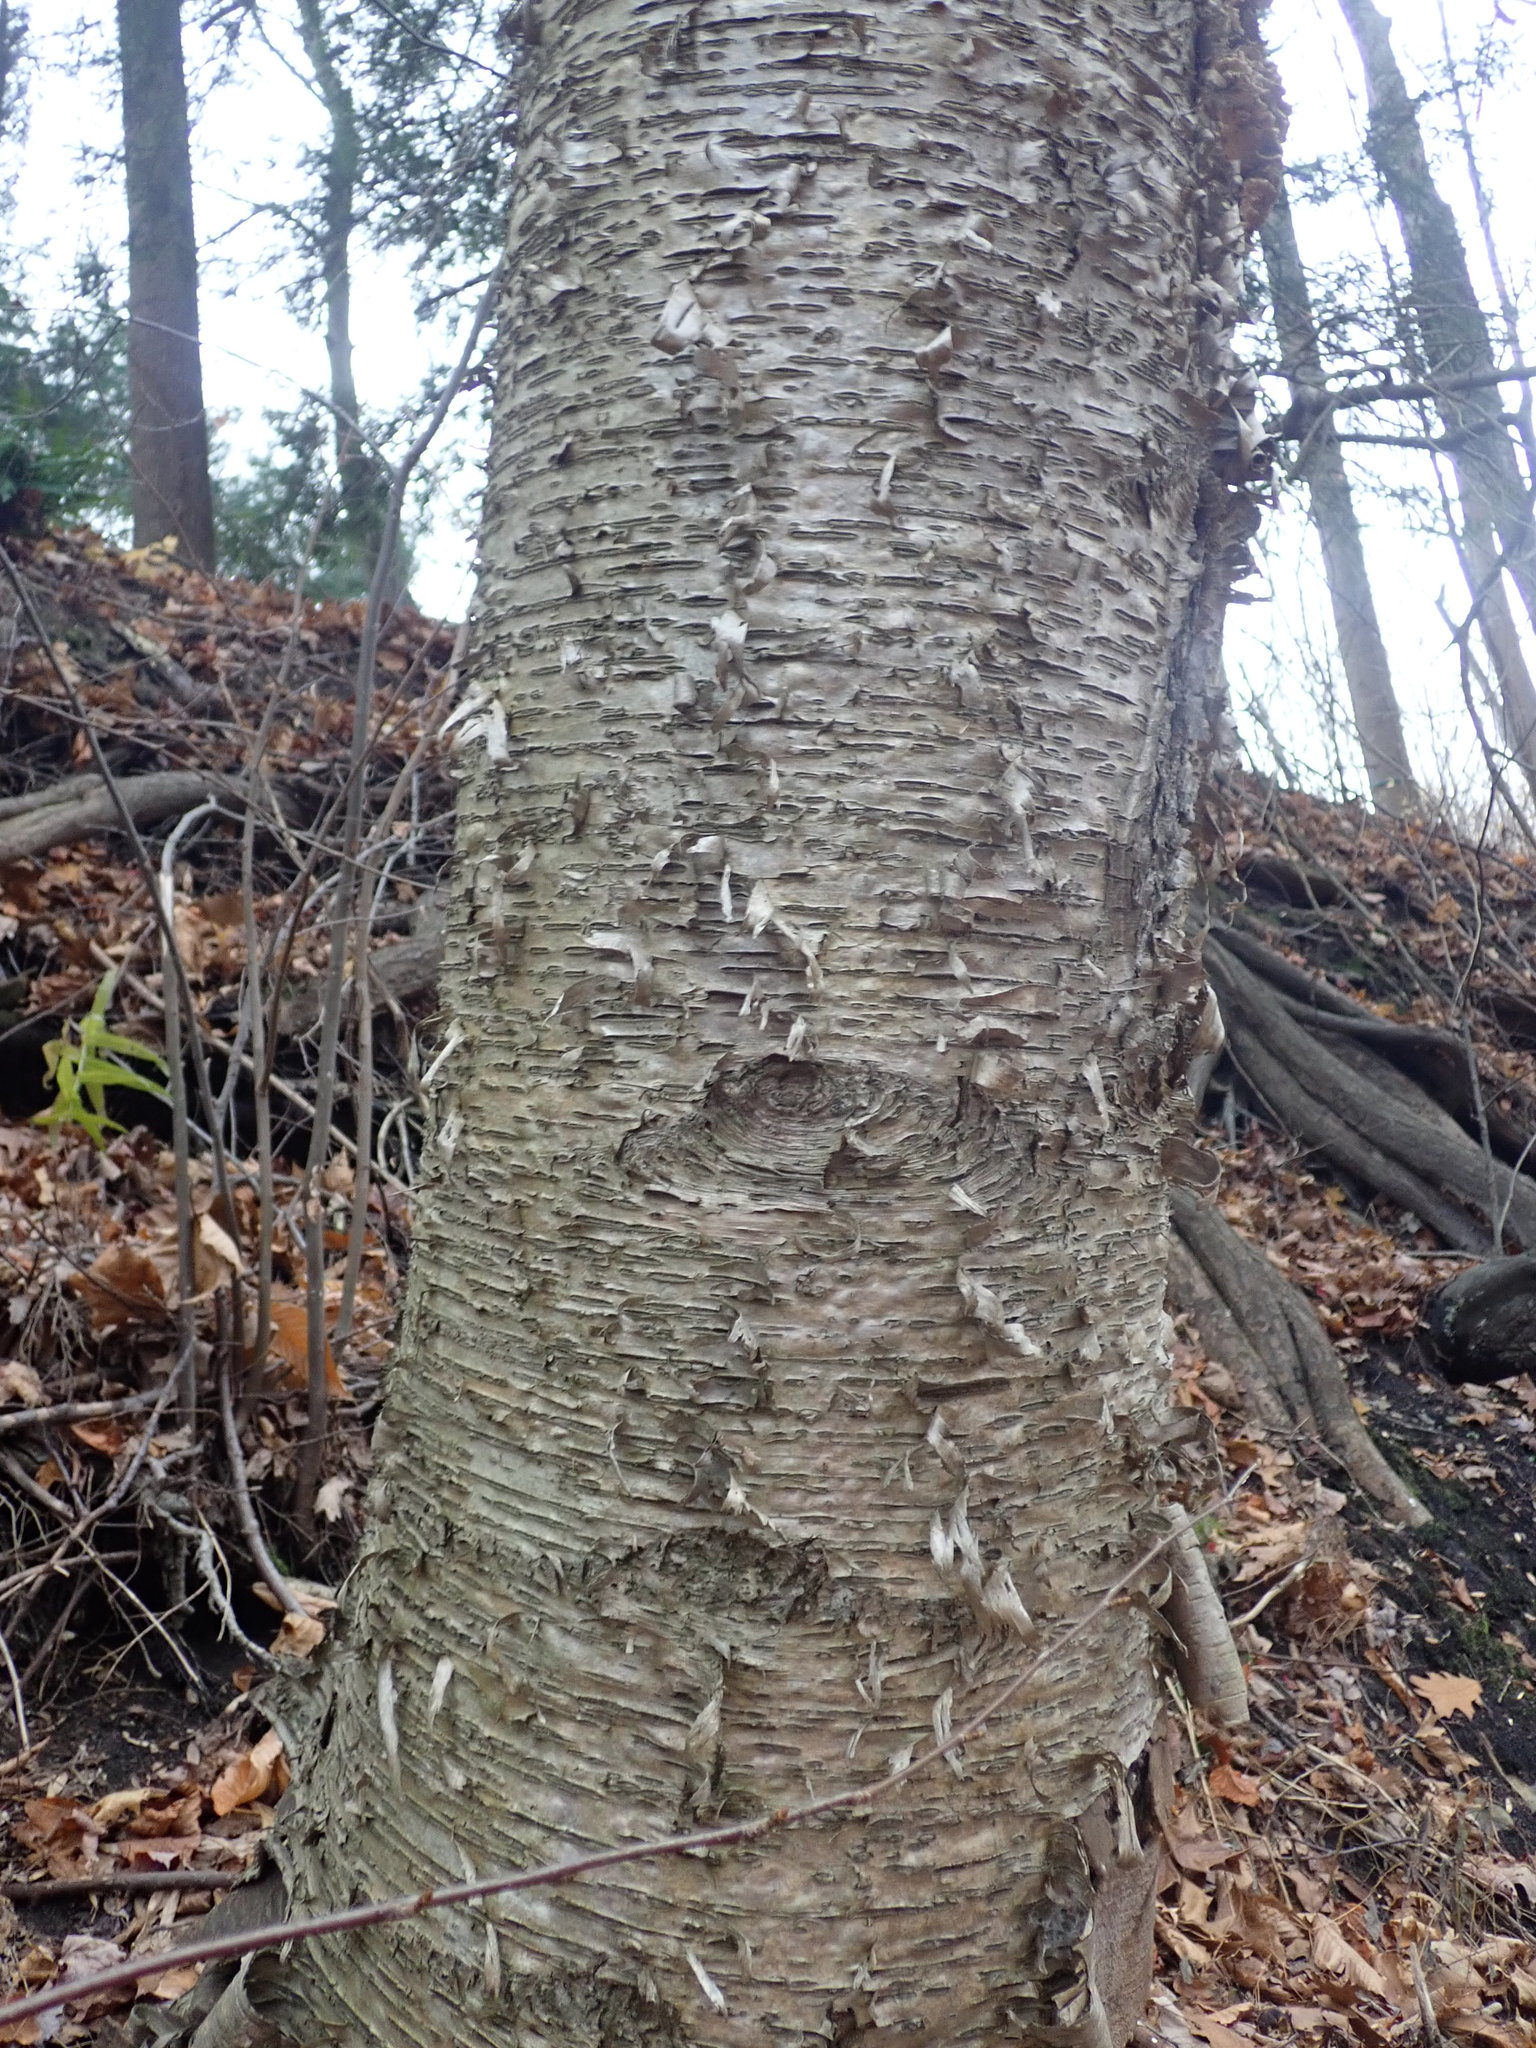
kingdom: Plantae
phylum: Tracheophyta
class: Magnoliopsida
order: Fagales
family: Betulaceae
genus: Betula
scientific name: Betula alleghaniensis
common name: Yellow birch
